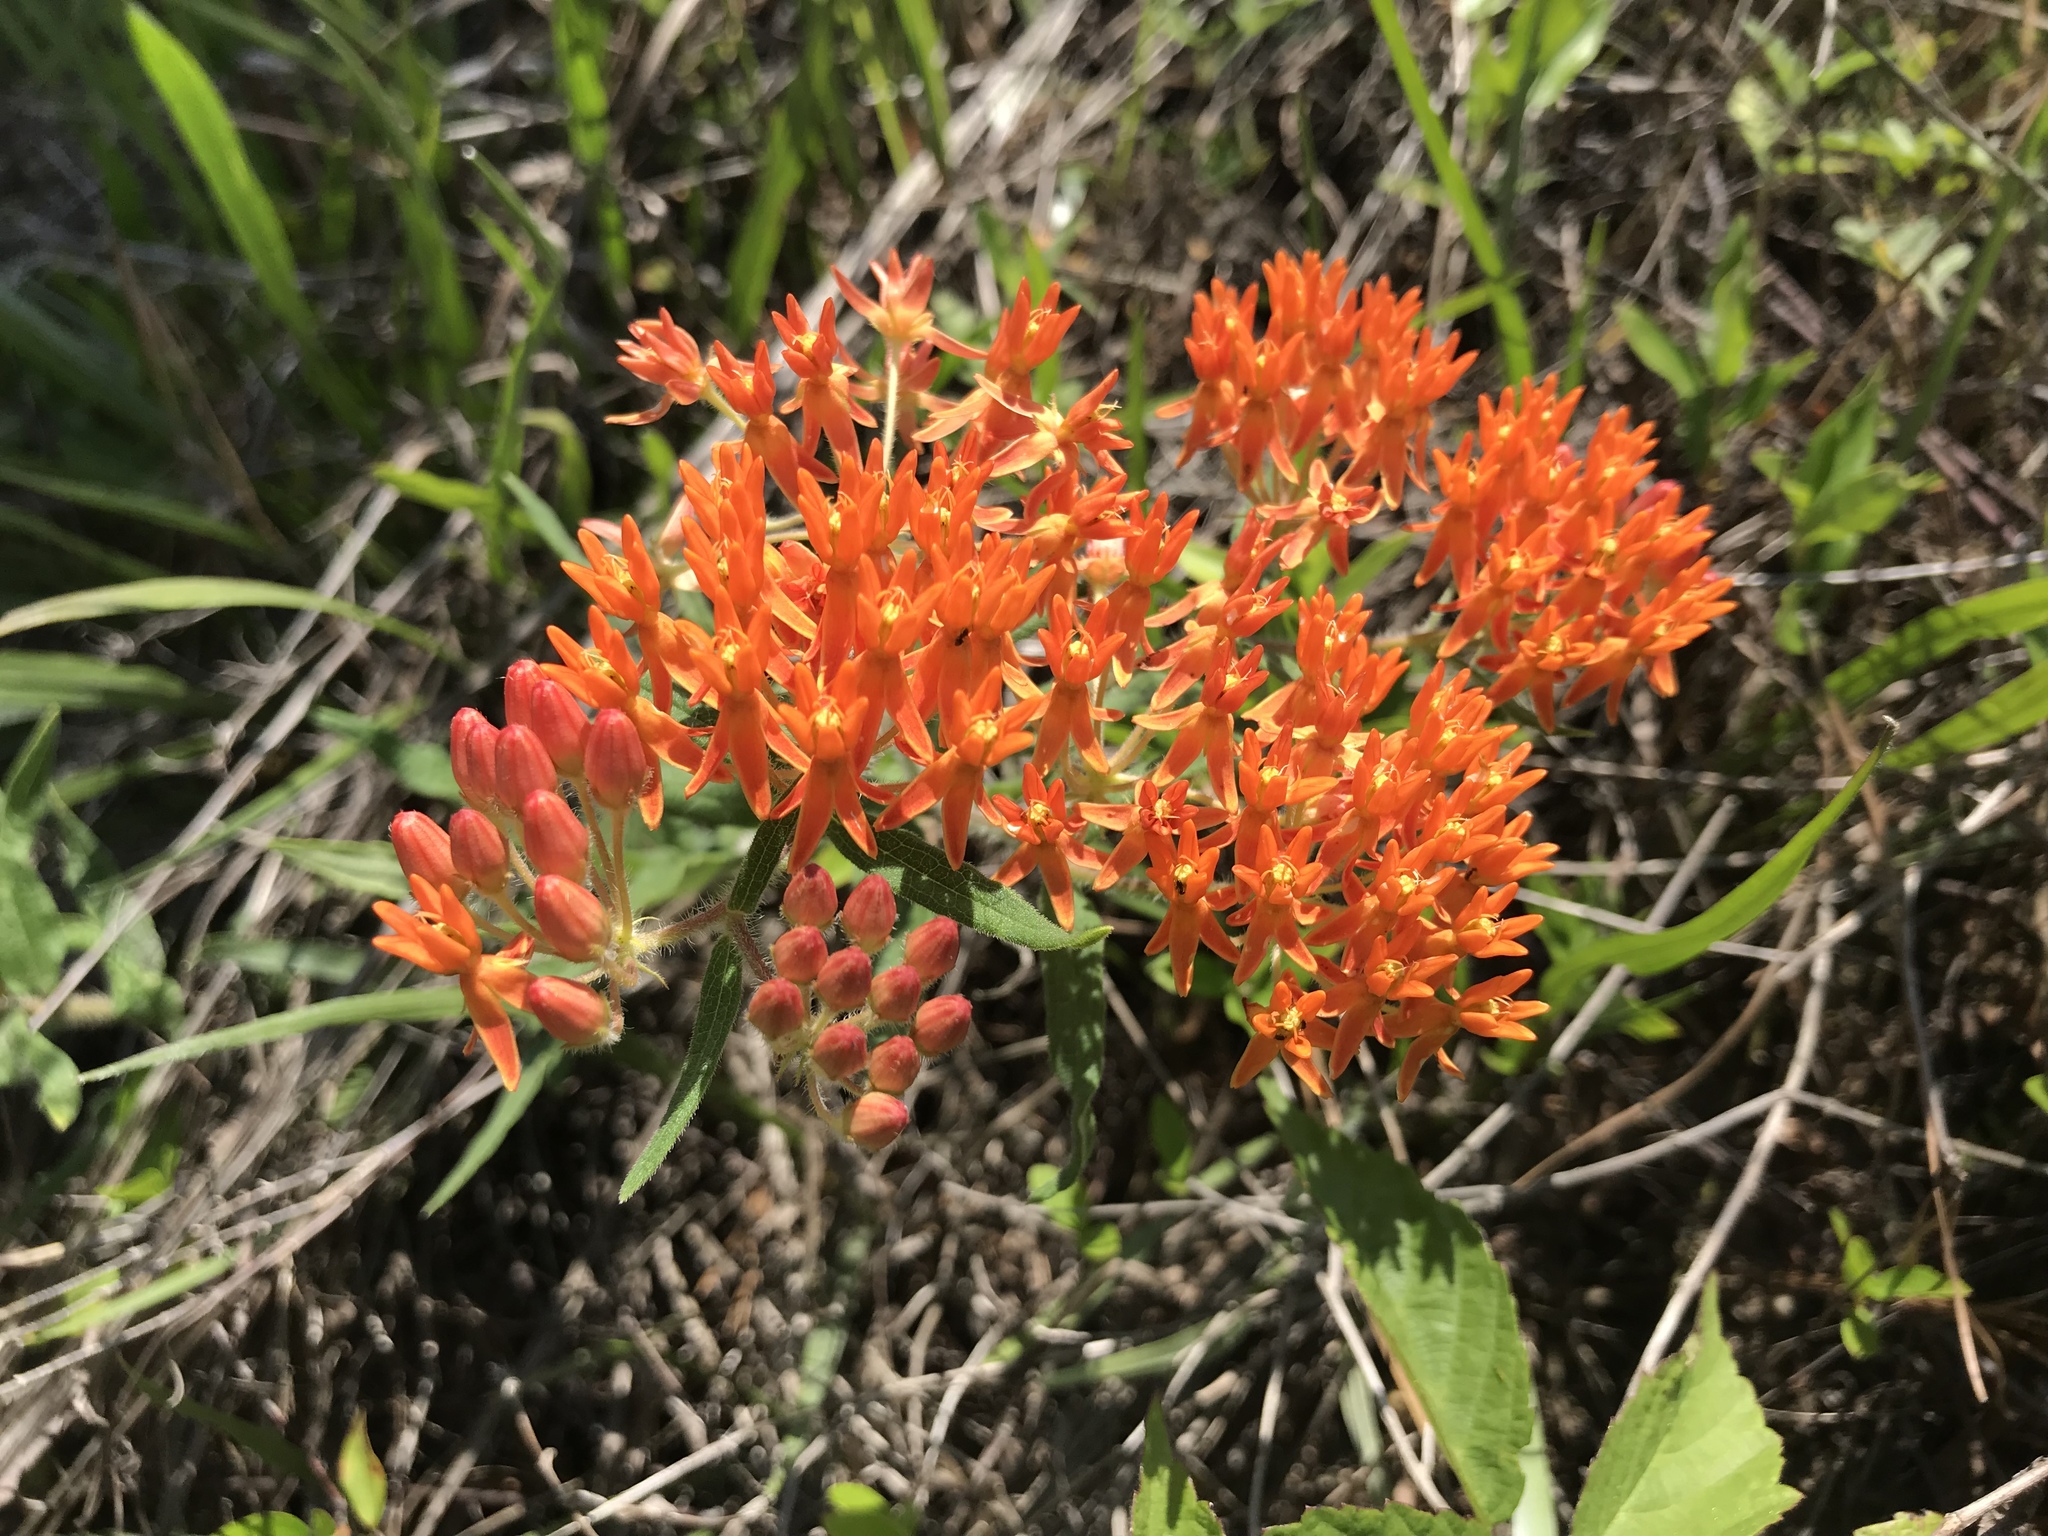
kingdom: Plantae
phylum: Tracheophyta
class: Magnoliopsida
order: Gentianales
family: Apocynaceae
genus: Asclepias
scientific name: Asclepias tuberosa
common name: Butterfly milkweed
